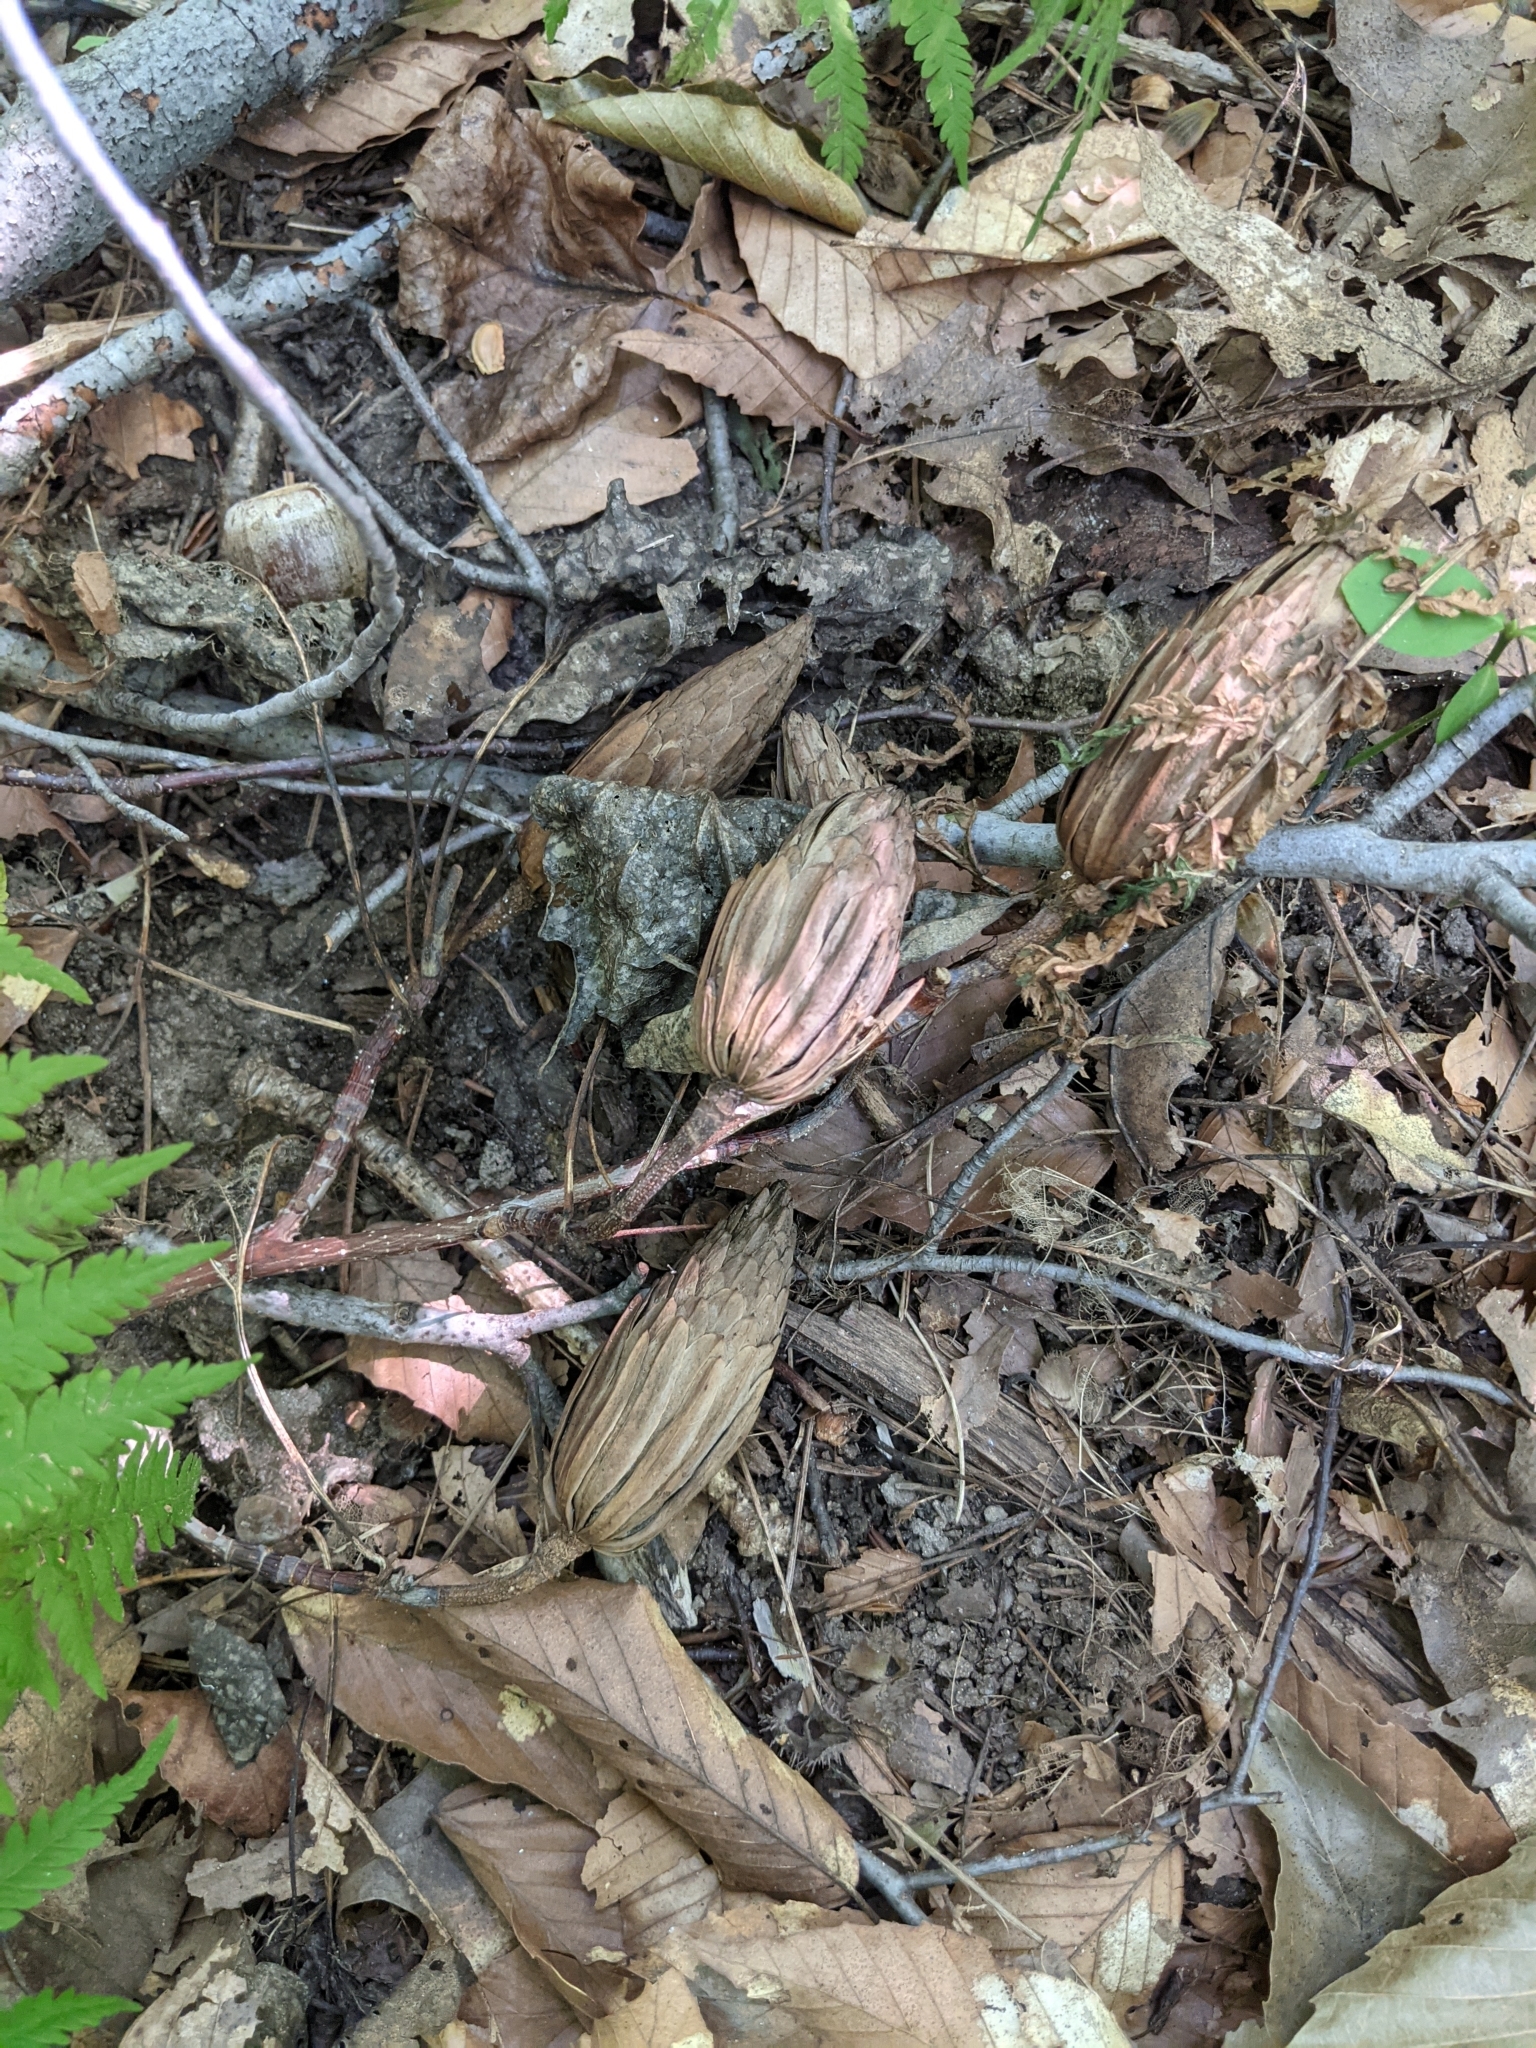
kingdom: Plantae
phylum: Tracheophyta
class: Magnoliopsida
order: Magnoliales
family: Magnoliaceae
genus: Liriodendron
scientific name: Liriodendron tulipifera
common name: Tulip tree
